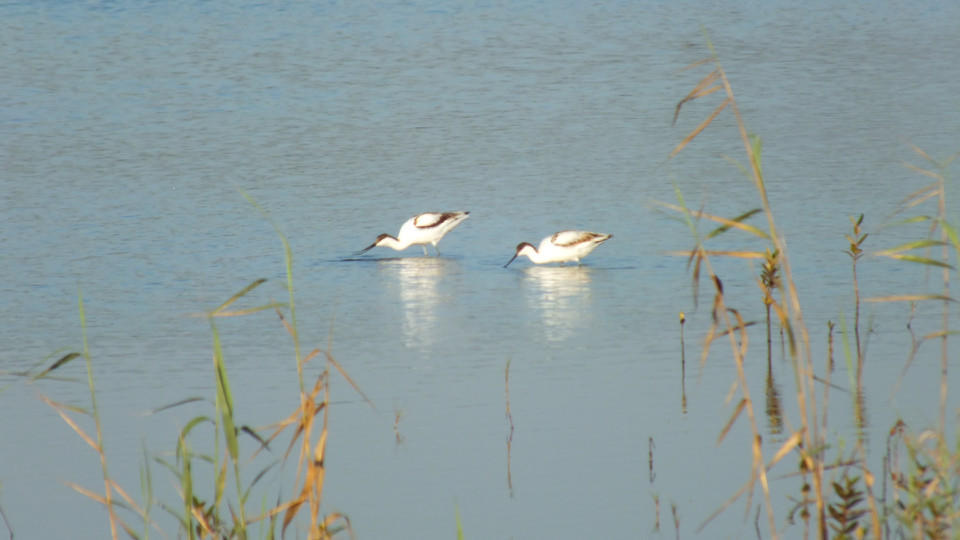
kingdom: Animalia
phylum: Chordata
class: Aves
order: Charadriiformes
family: Recurvirostridae
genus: Recurvirostra
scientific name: Recurvirostra avosetta
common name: Pied avocet
